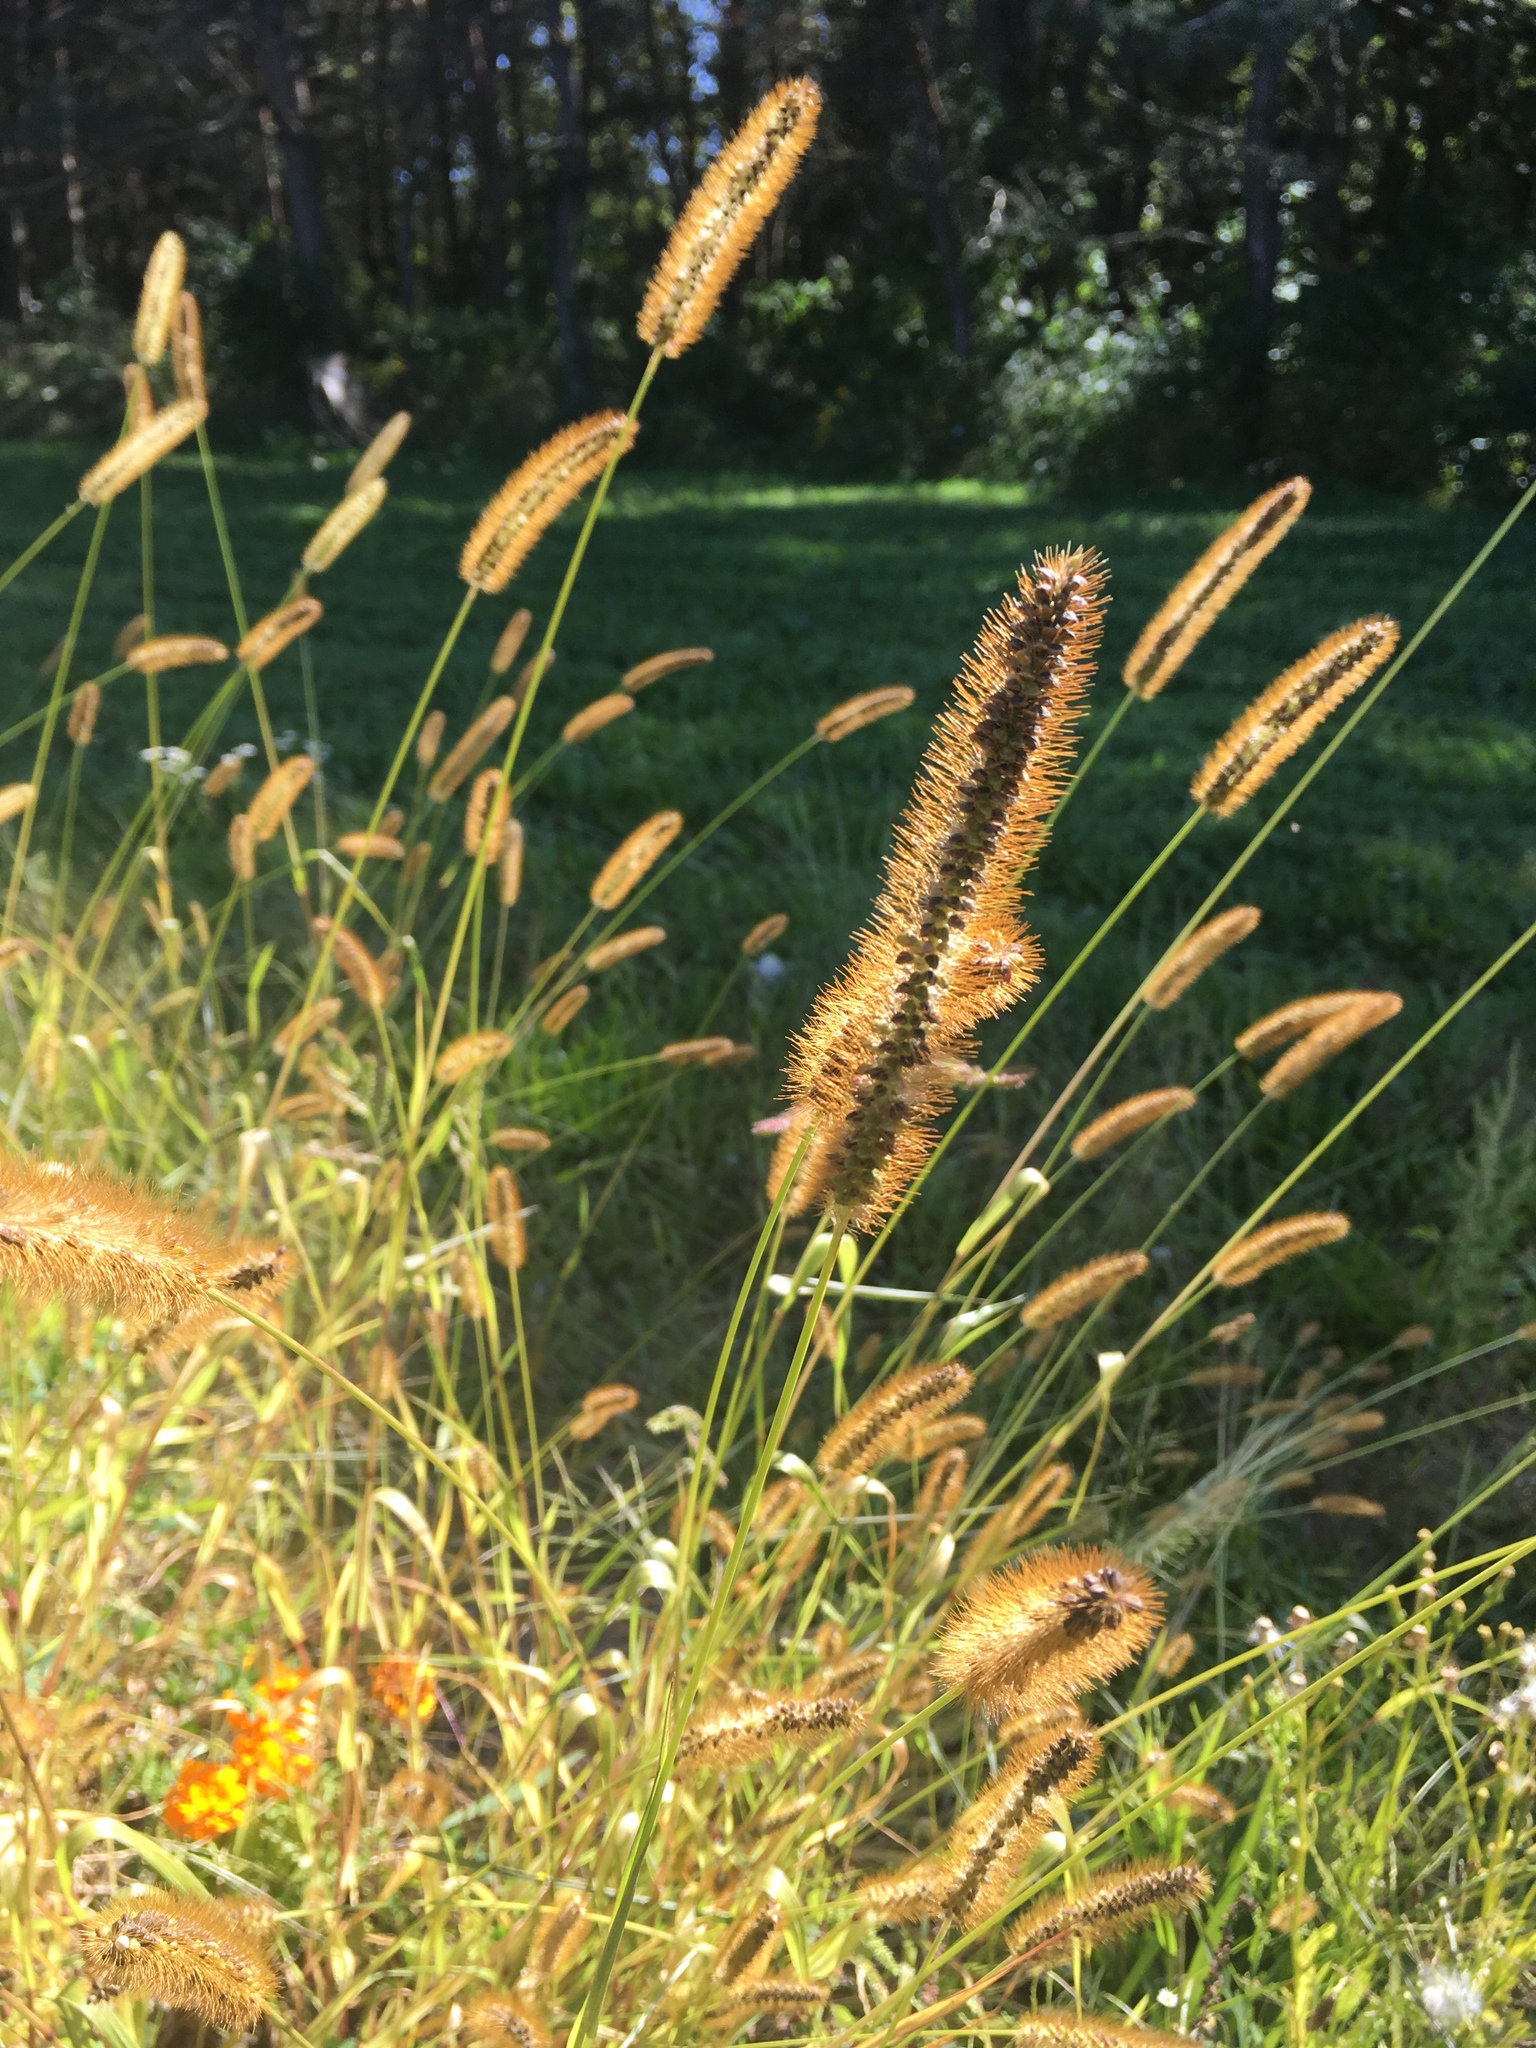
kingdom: Plantae
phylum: Tracheophyta
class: Liliopsida
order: Poales
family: Poaceae
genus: Setaria
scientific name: Setaria pumila
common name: Yellow bristle-grass
